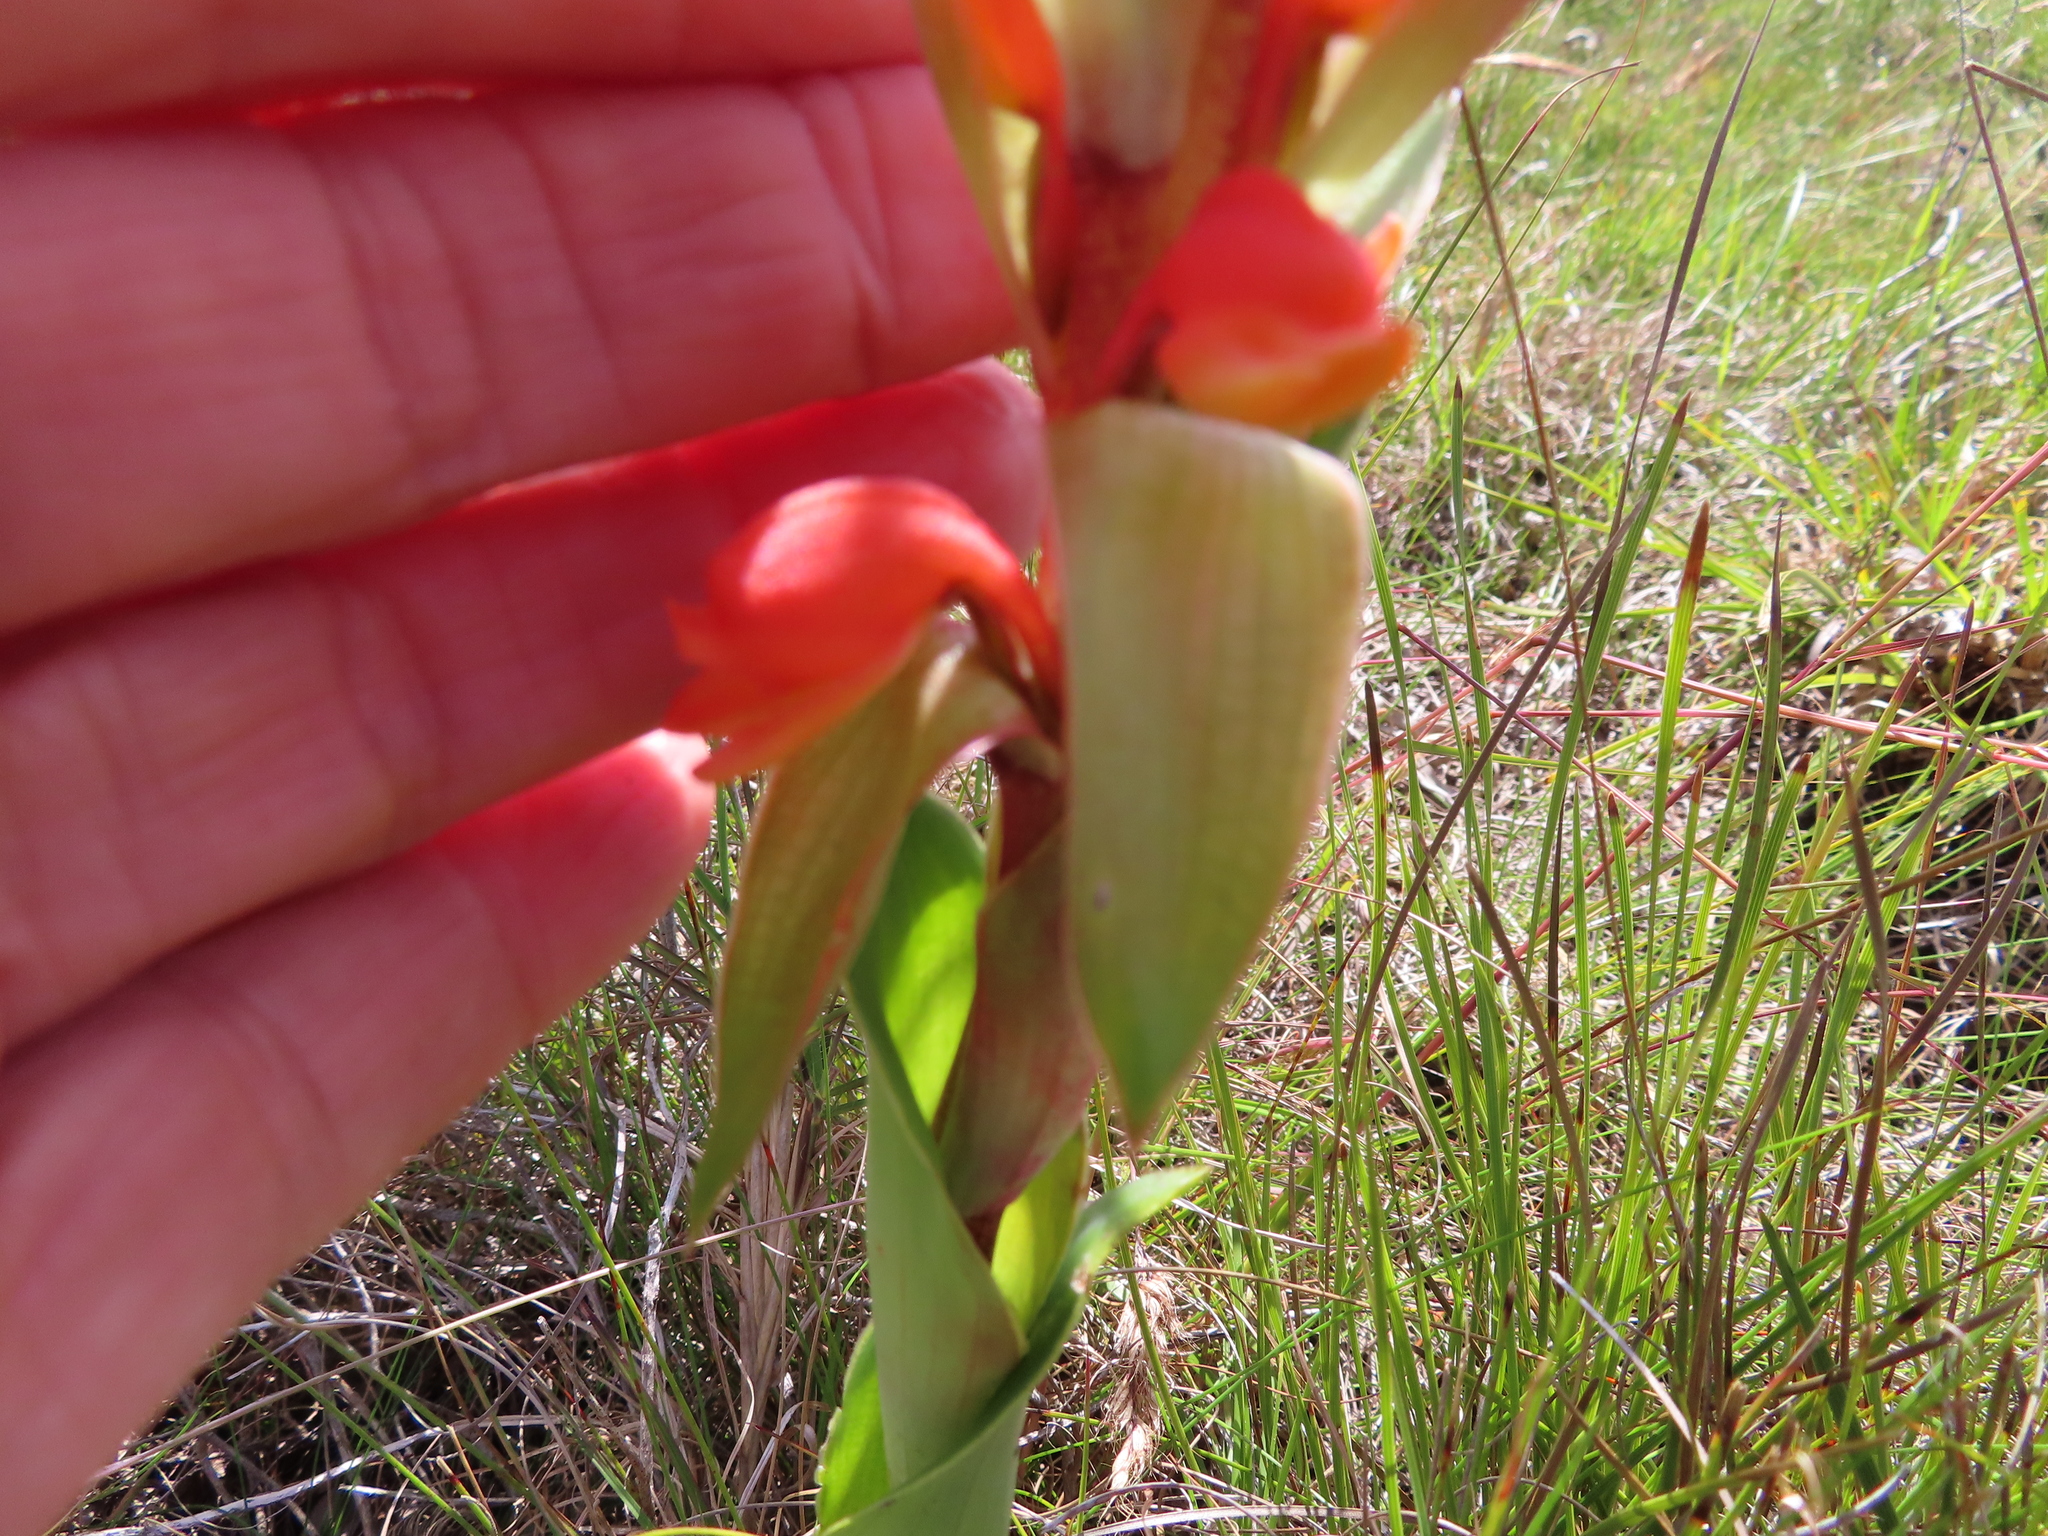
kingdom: Plantae
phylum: Tracheophyta
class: Liliopsida
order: Asparagales
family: Orchidaceae
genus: Satyrium
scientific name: Satyrium coriifolium
